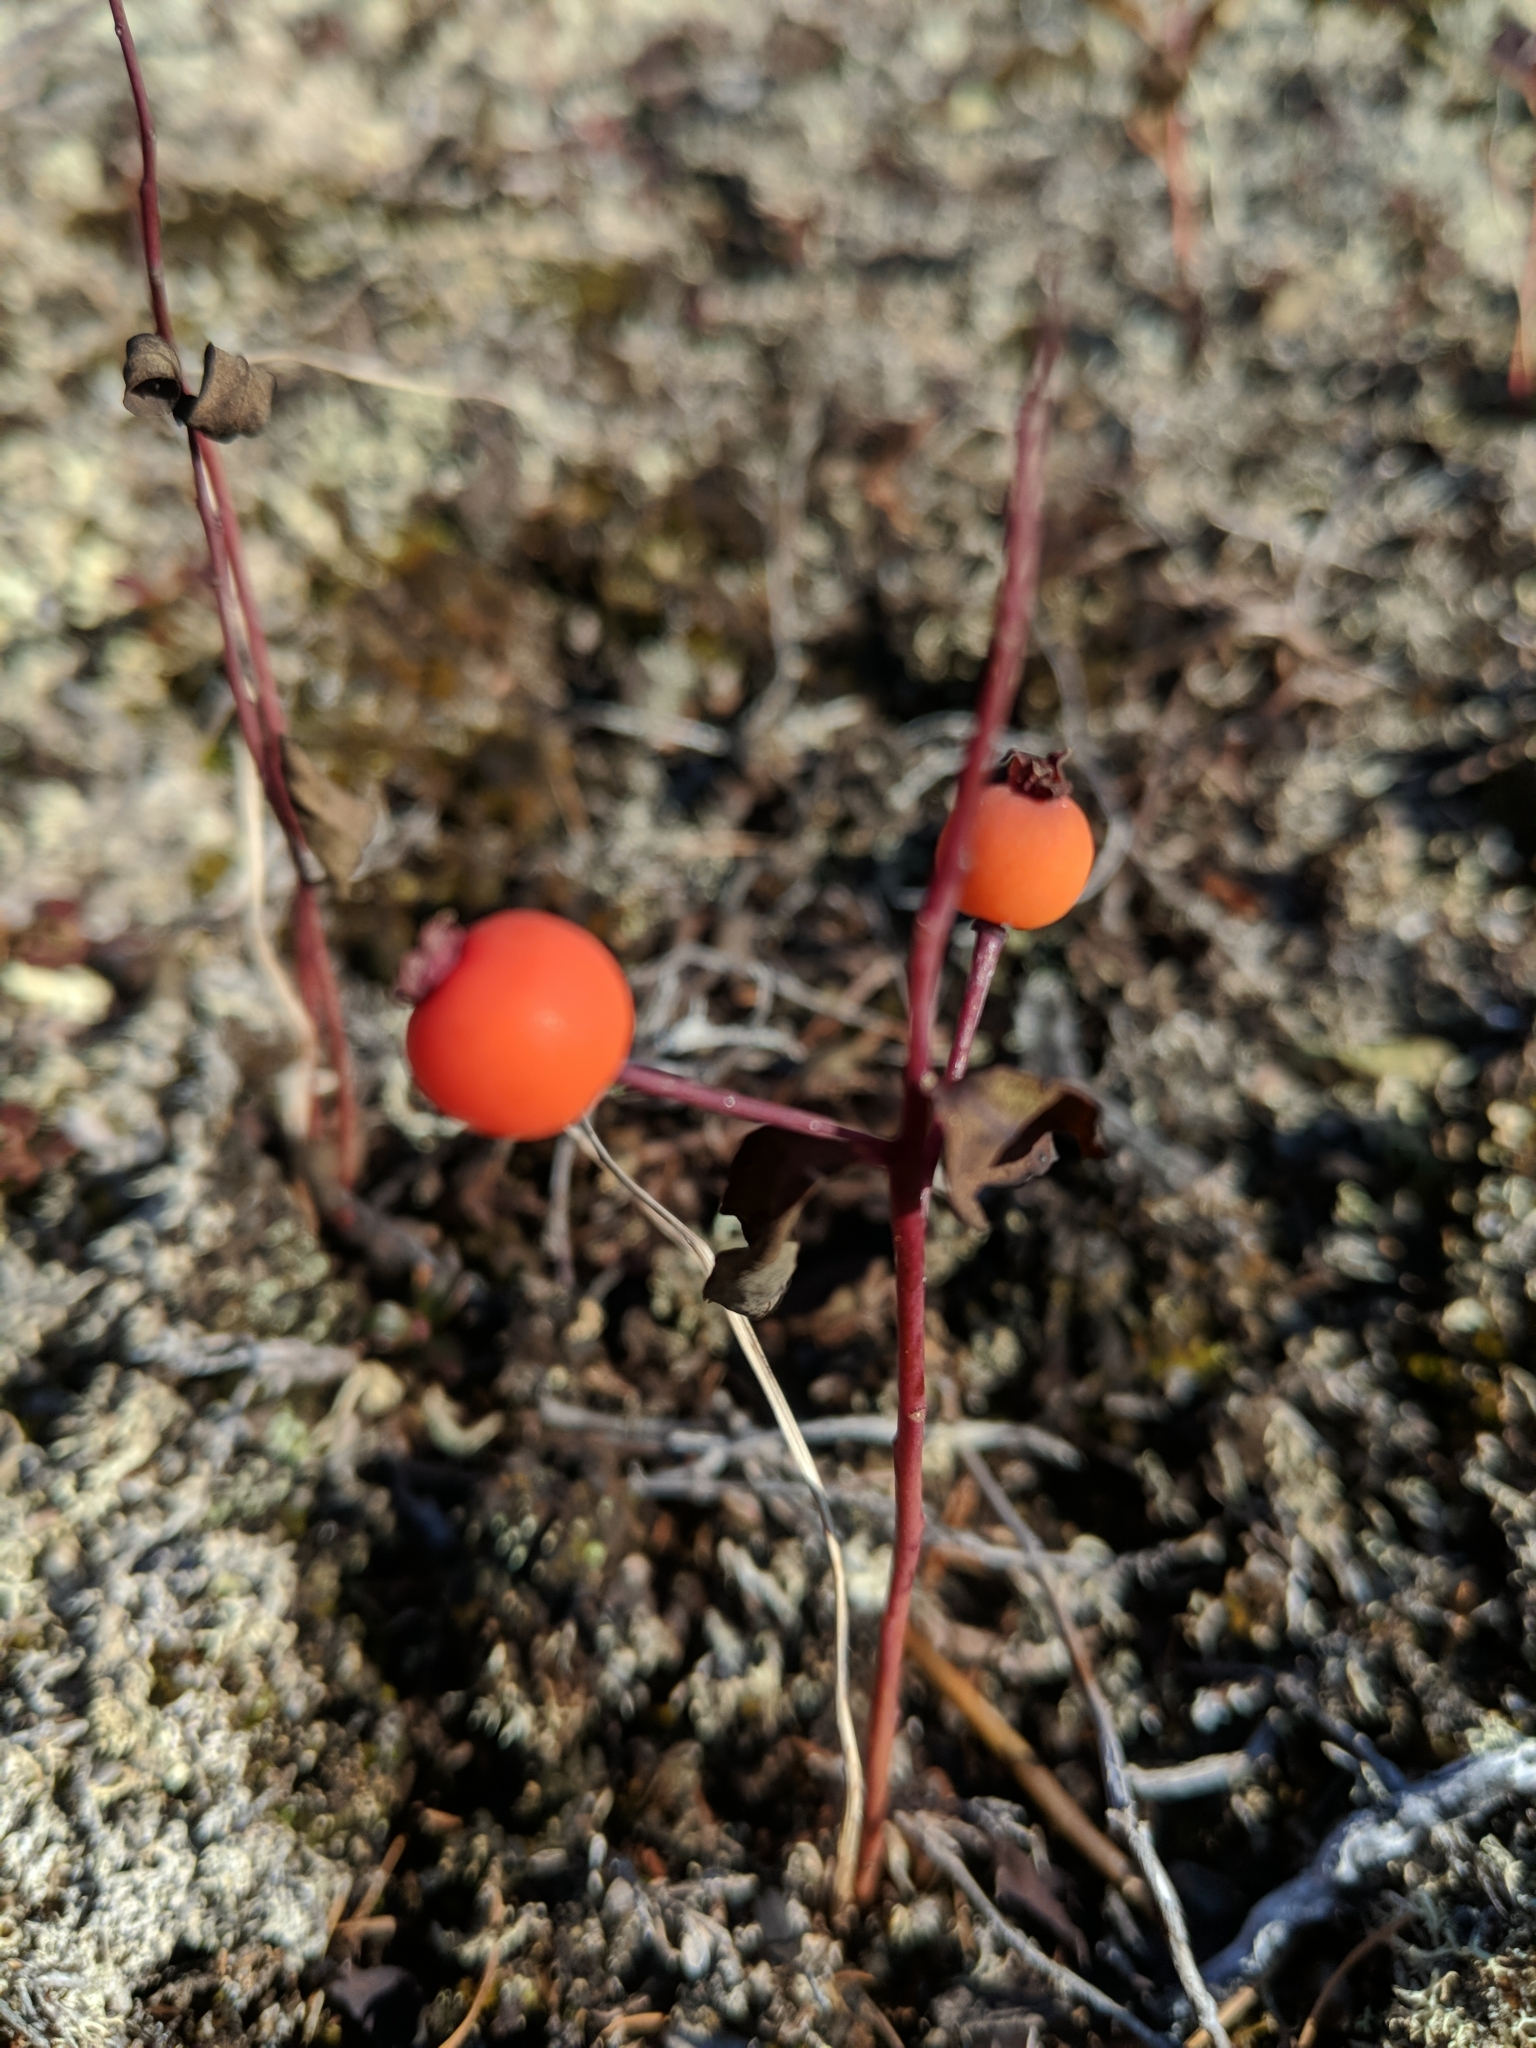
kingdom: Plantae
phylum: Tracheophyta
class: Magnoliopsida
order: Santalales
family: Comandraceae
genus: Geocaulon
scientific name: Geocaulon lividum
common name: Earthberry
